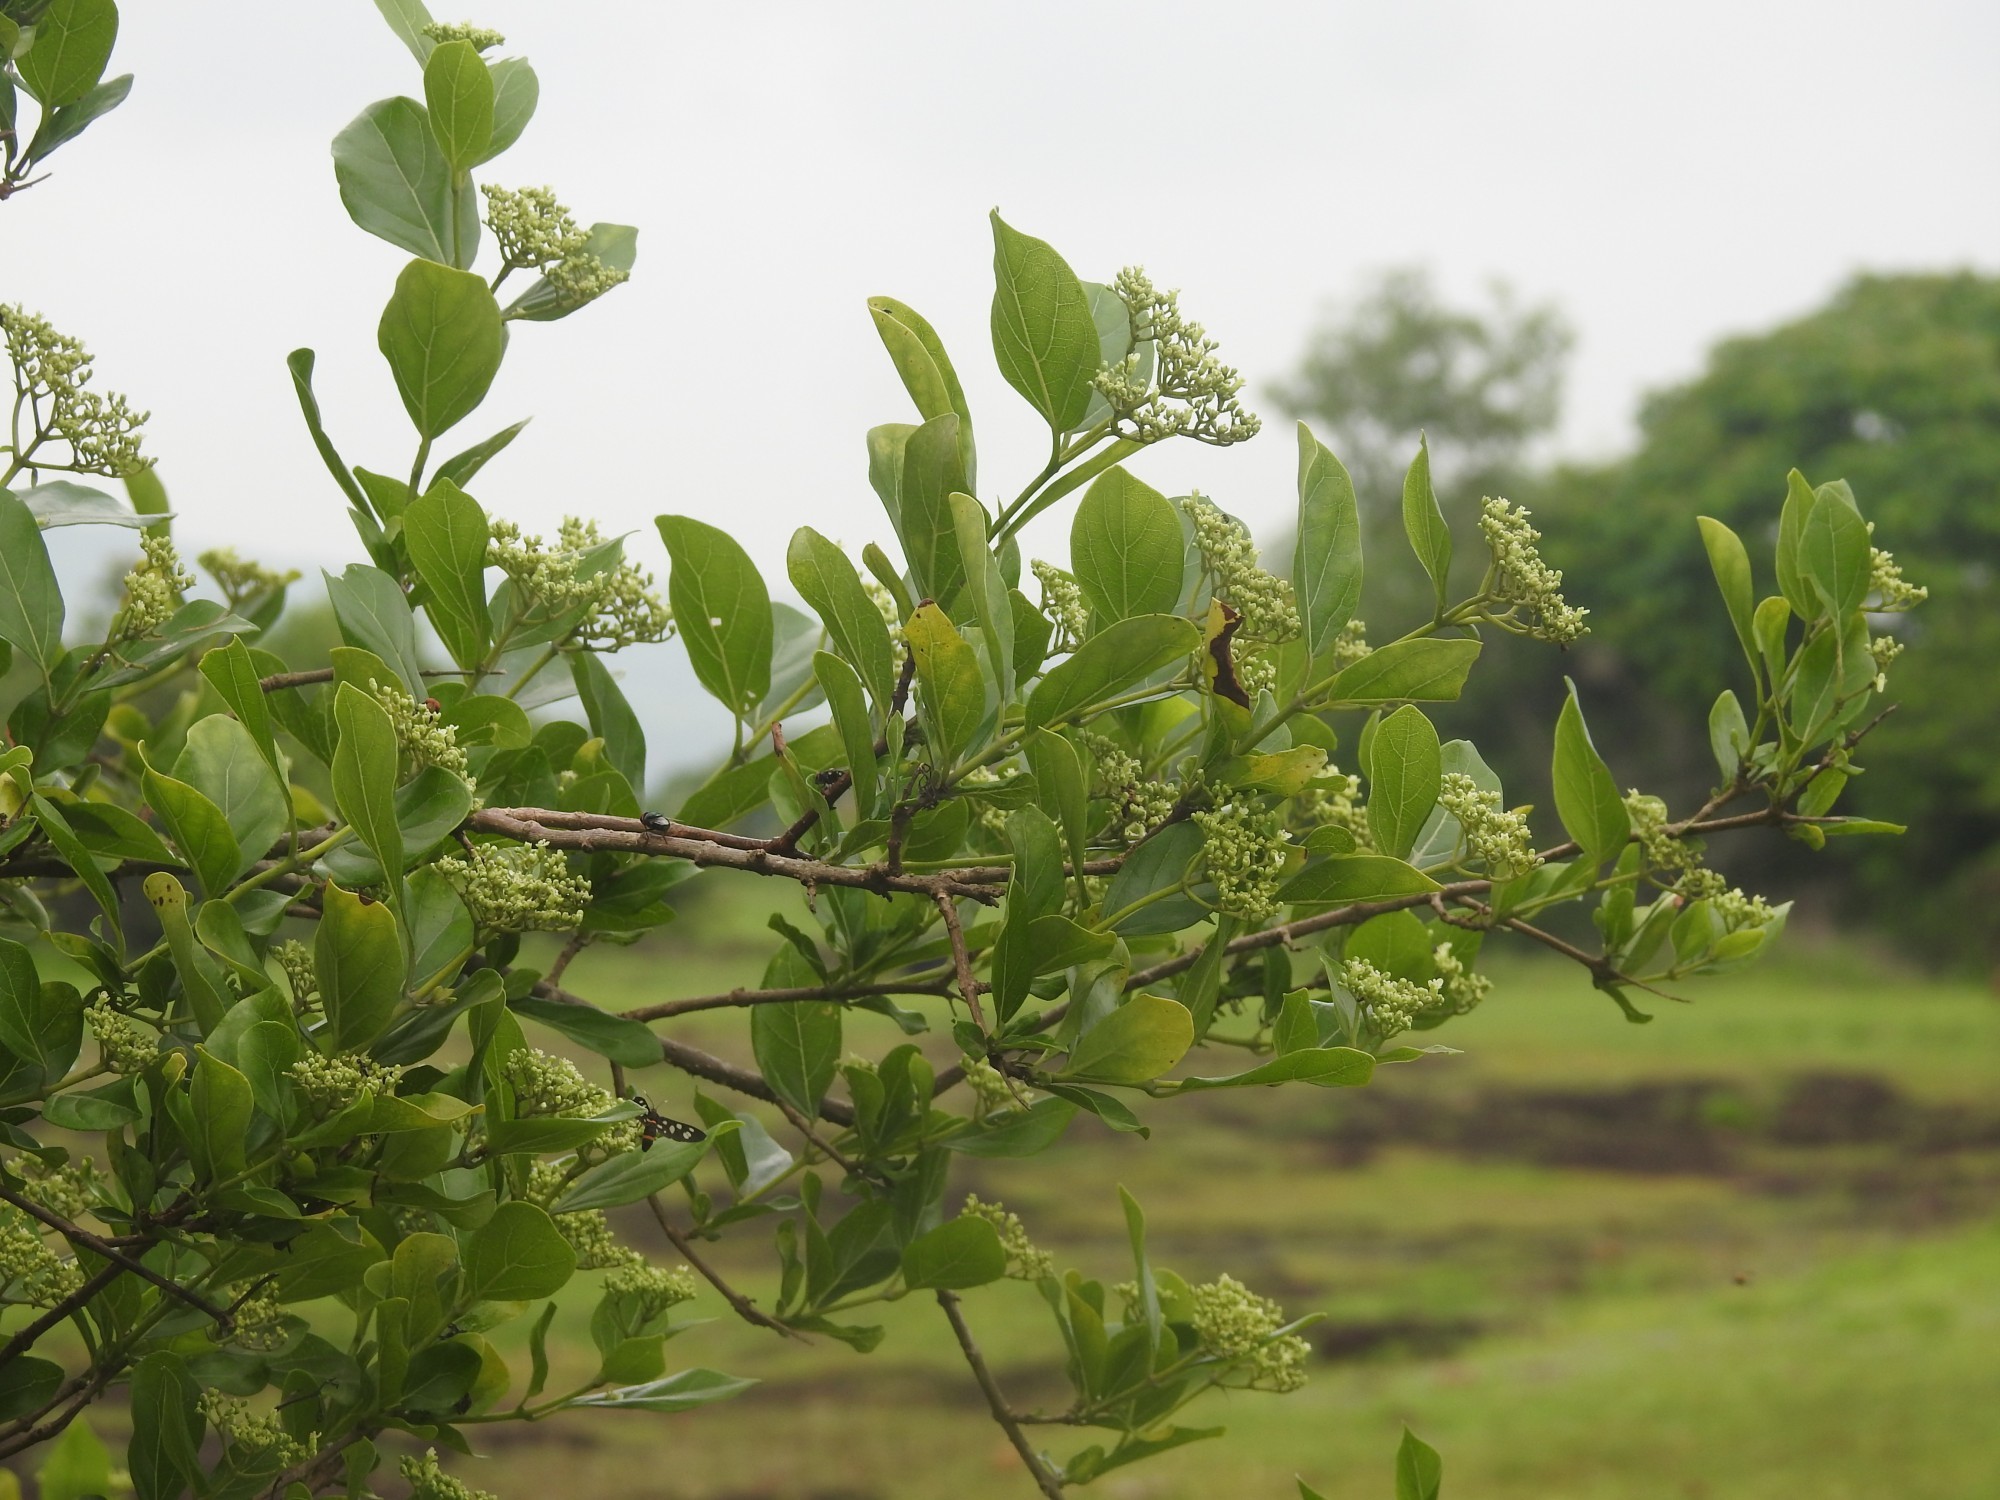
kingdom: Plantae
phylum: Tracheophyta
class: Magnoliopsida
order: Lamiales
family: Lamiaceae
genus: Premna
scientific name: Premna serratifolia
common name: Bastard guelder
